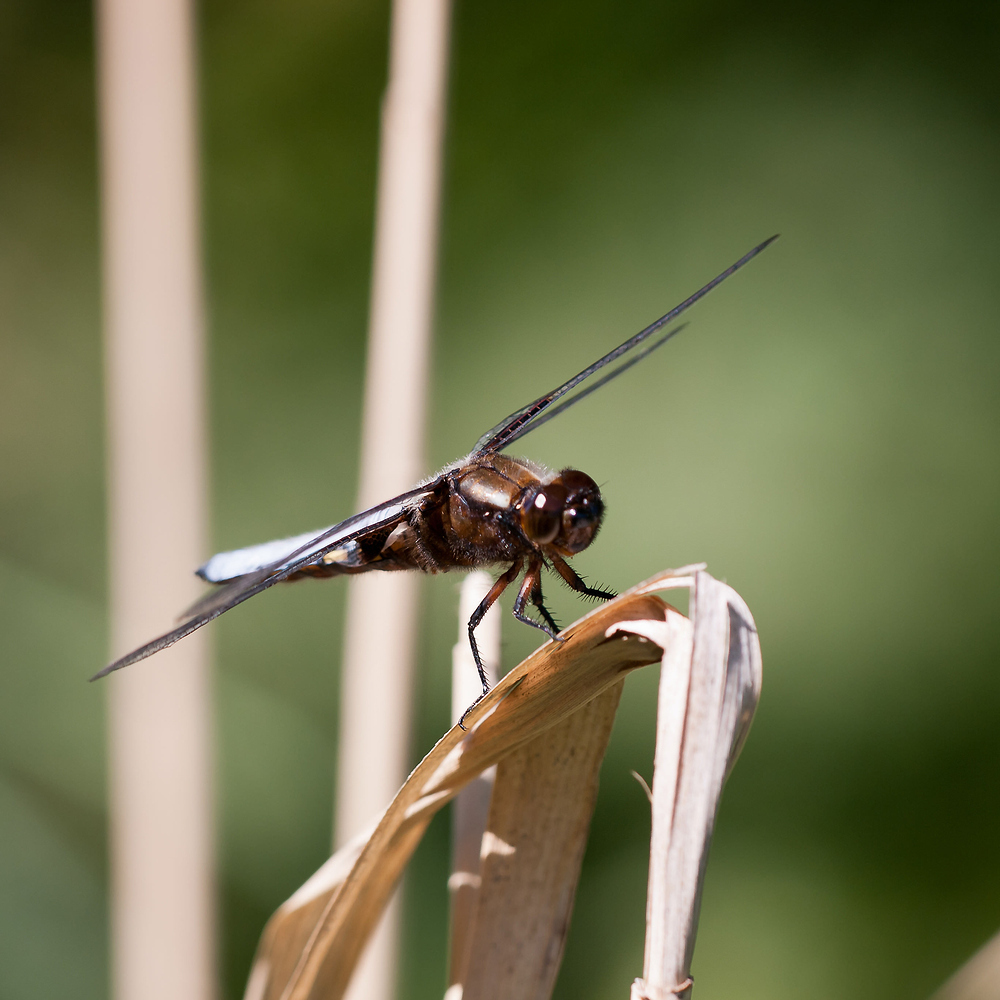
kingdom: Animalia
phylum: Arthropoda
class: Insecta
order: Odonata
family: Libellulidae
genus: Libellula
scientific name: Libellula depressa
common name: Broad-bodied chaser
